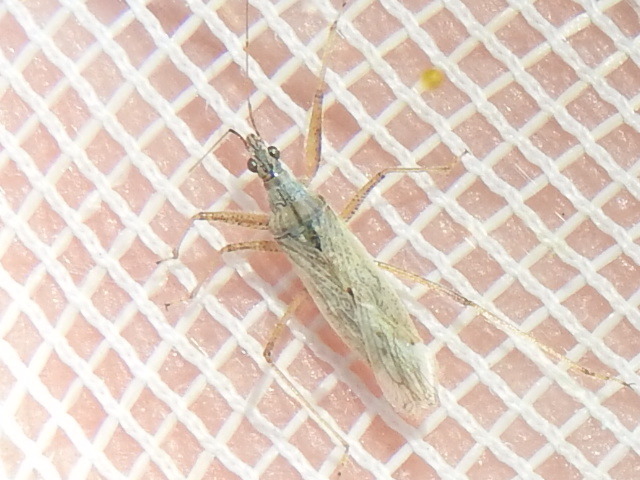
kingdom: Animalia
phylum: Arthropoda
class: Insecta
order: Hemiptera
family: Nabidae
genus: Nabis
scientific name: Nabis americoferus
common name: Common damsel bug
